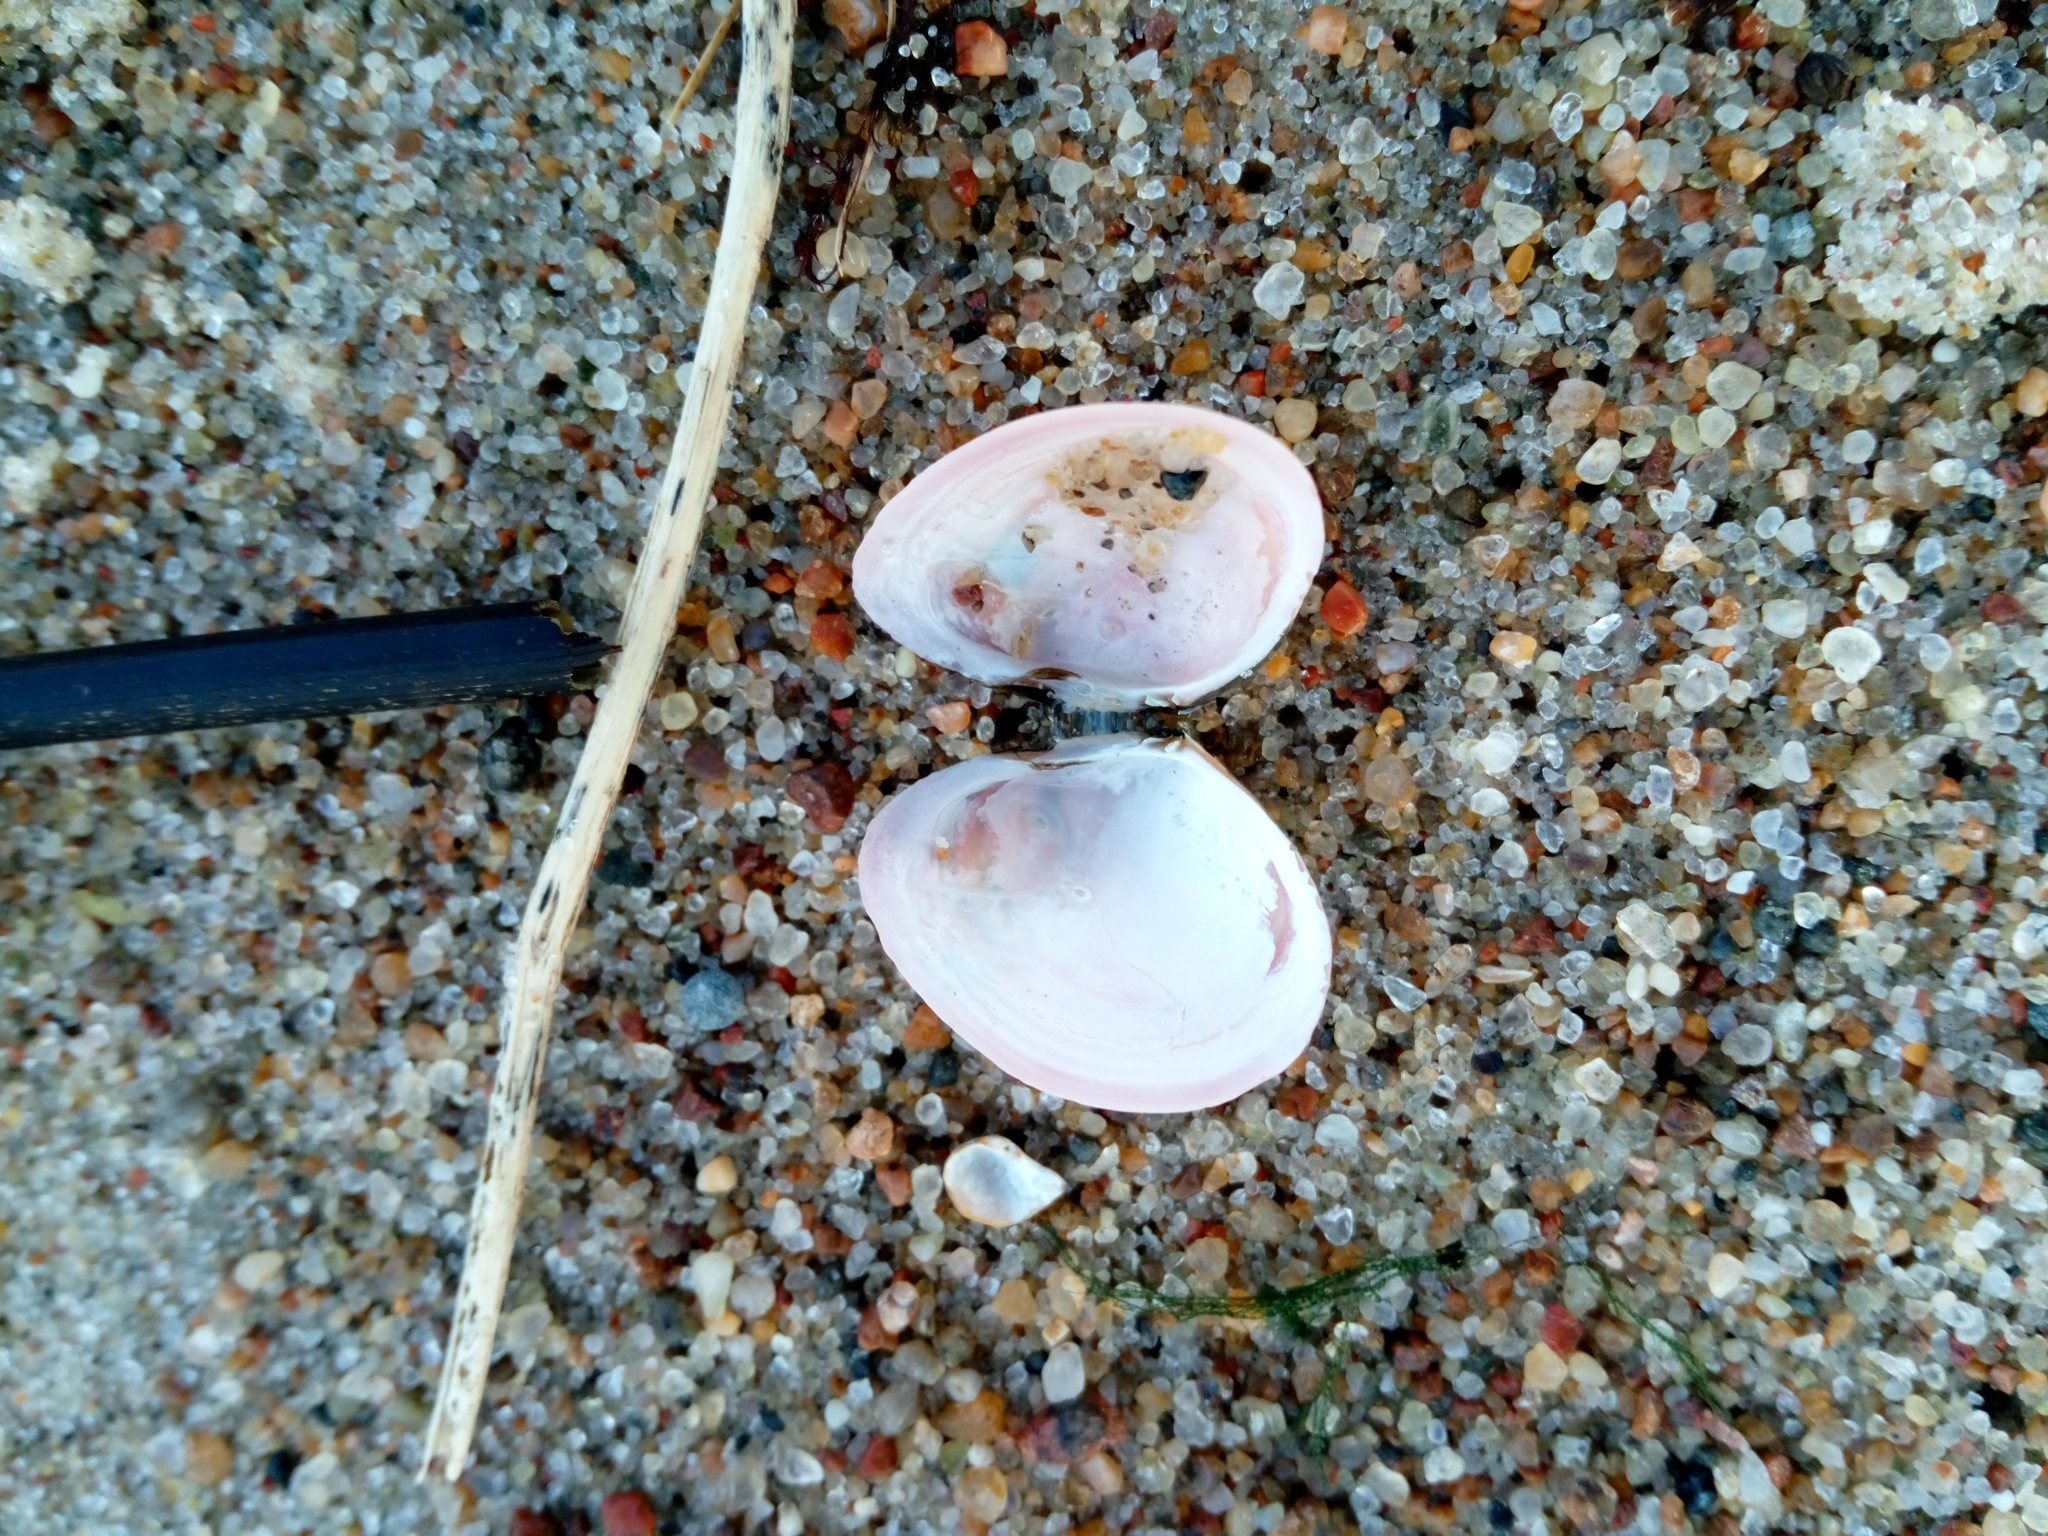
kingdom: Animalia
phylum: Mollusca
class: Bivalvia
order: Cardiida
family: Tellinidae
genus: Macoma
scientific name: Macoma balthica
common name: Baltic tellin
